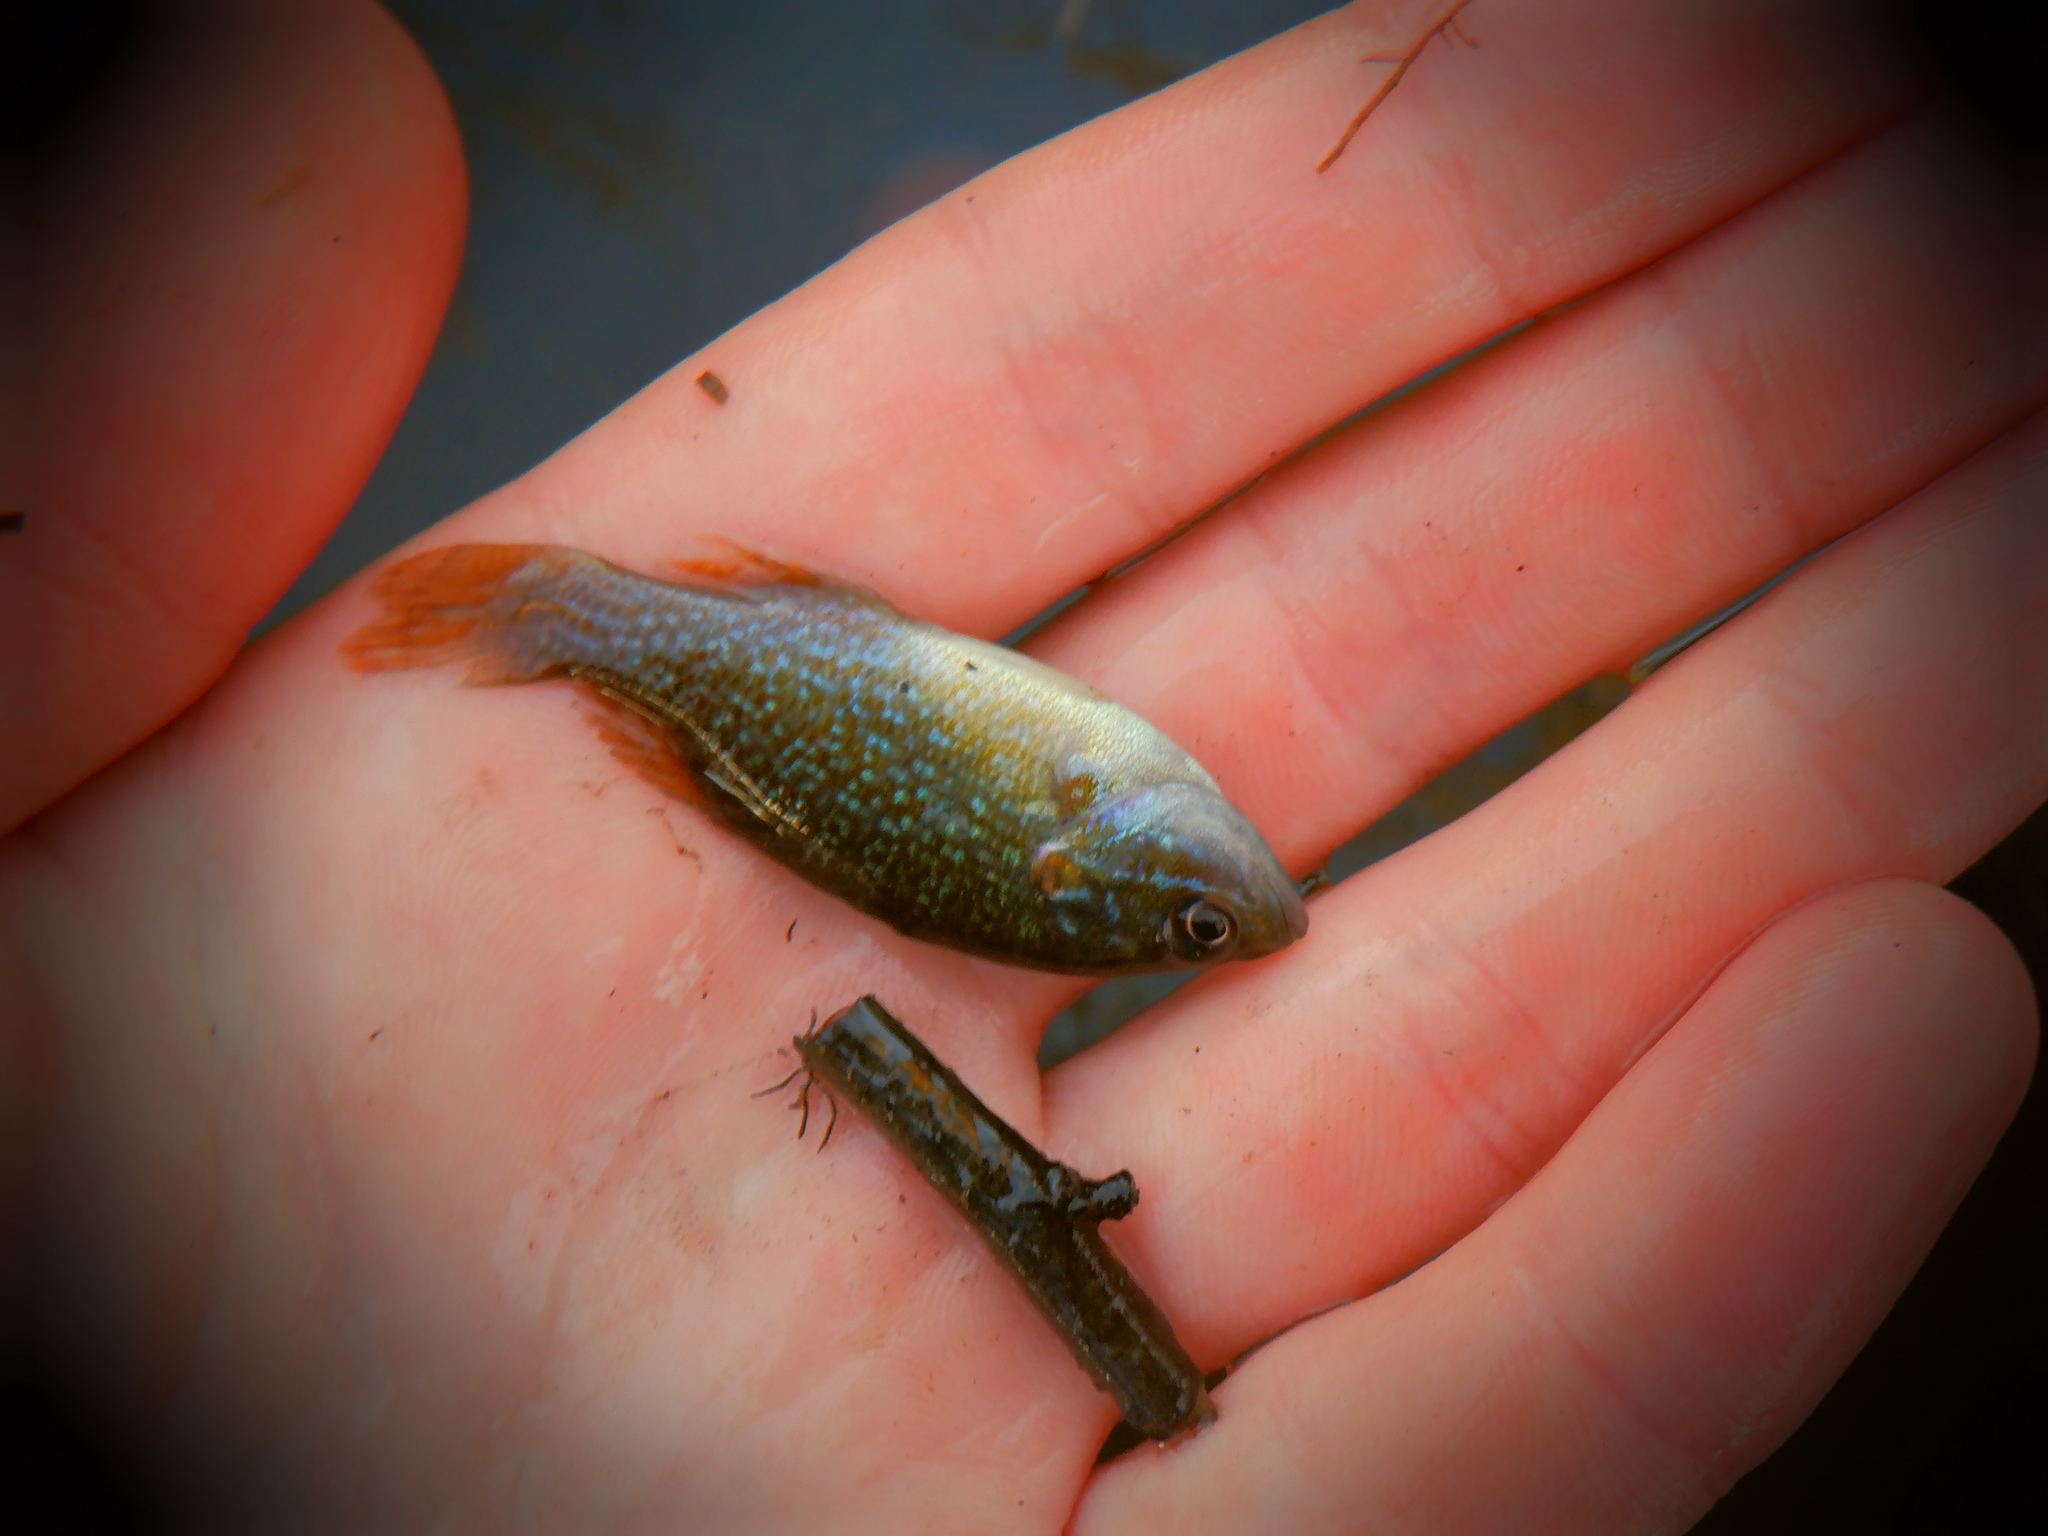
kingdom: Animalia
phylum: Chordata
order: Perciformes
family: Centrarchidae
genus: Lepomis
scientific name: Lepomis cyanellus
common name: Green sunfish
